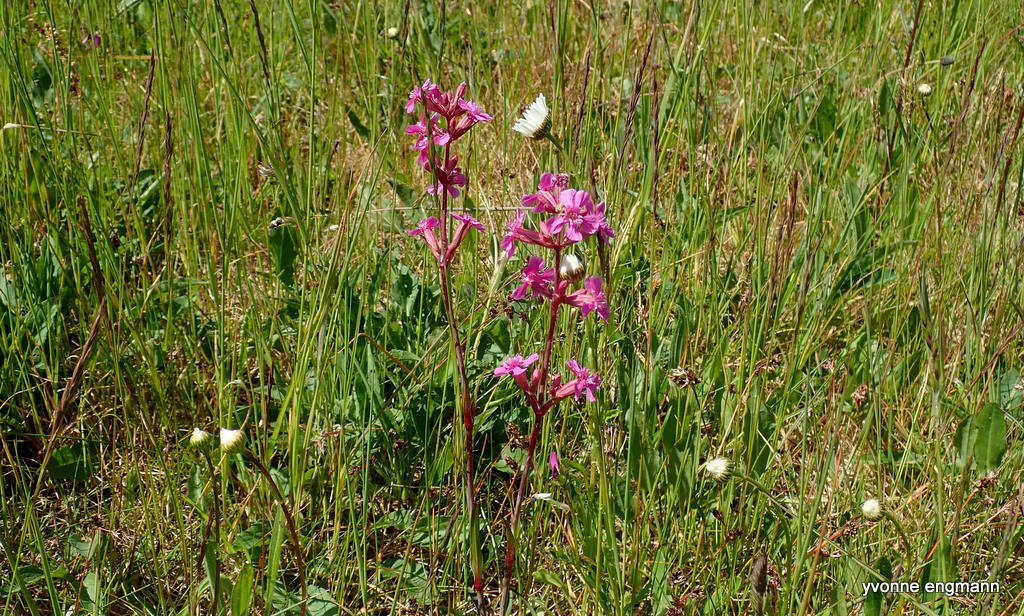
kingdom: Plantae
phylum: Tracheophyta
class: Magnoliopsida
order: Caryophyllales
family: Caryophyllaceae
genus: Viscaria
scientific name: Viscaria vulgaris
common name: Clammy campion
